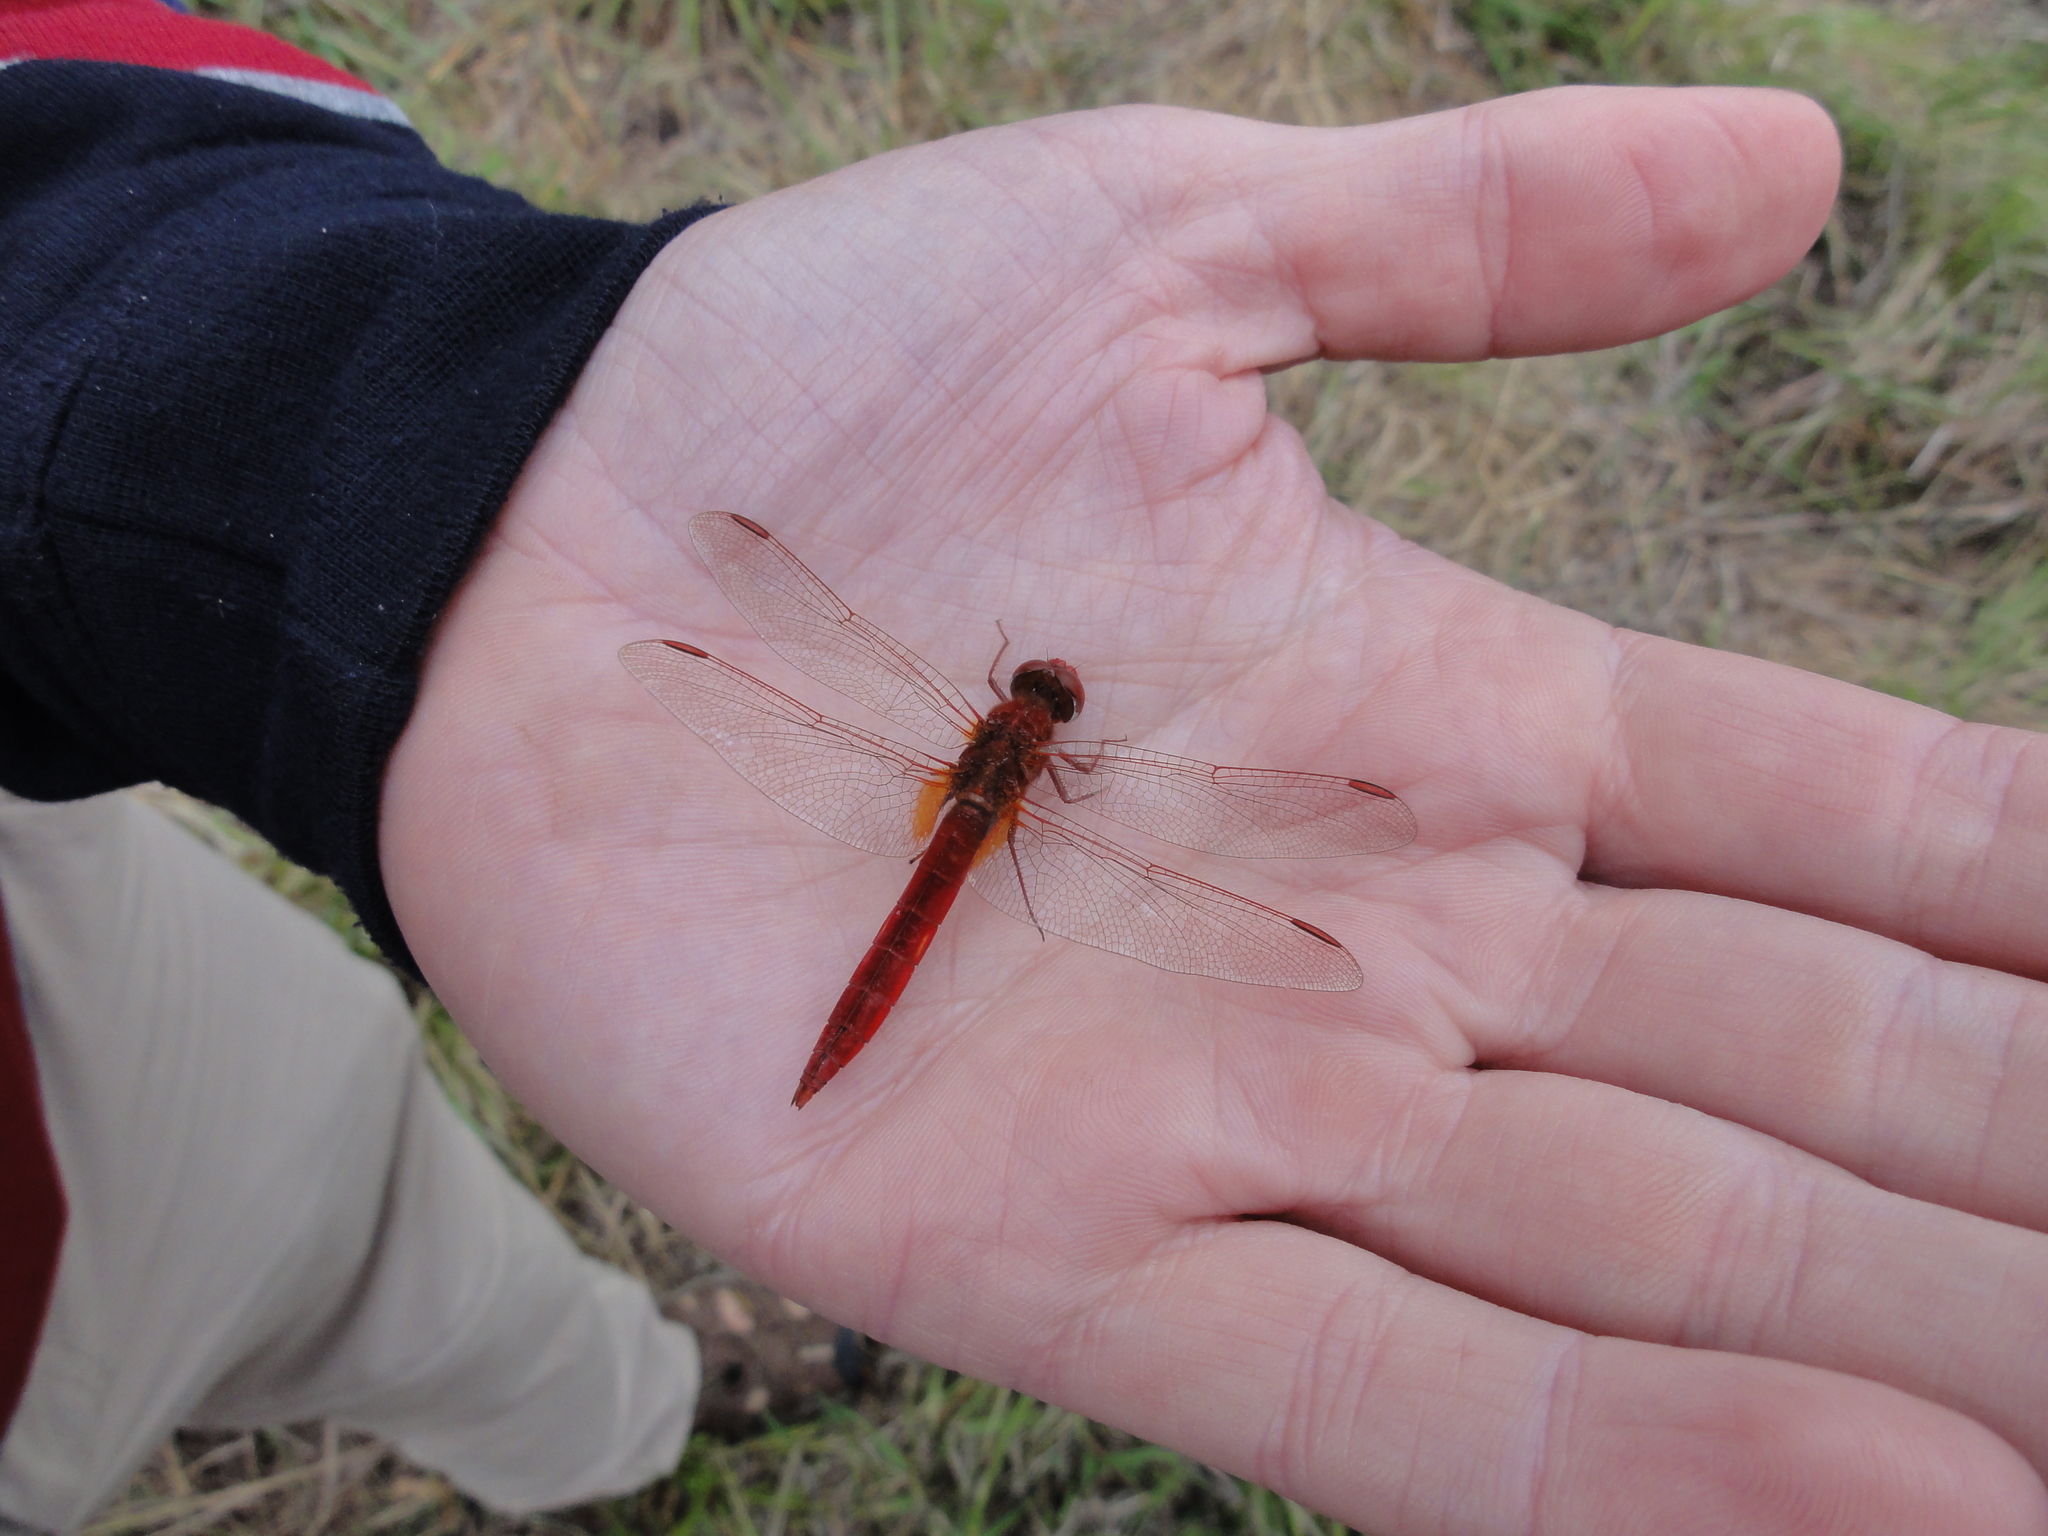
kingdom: Animalia
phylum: Arthropoda
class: Insecta
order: Odonata
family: Libellulidae
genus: Crocothemis
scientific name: Crocothemis erythraea
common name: Scarlet dragonfly
